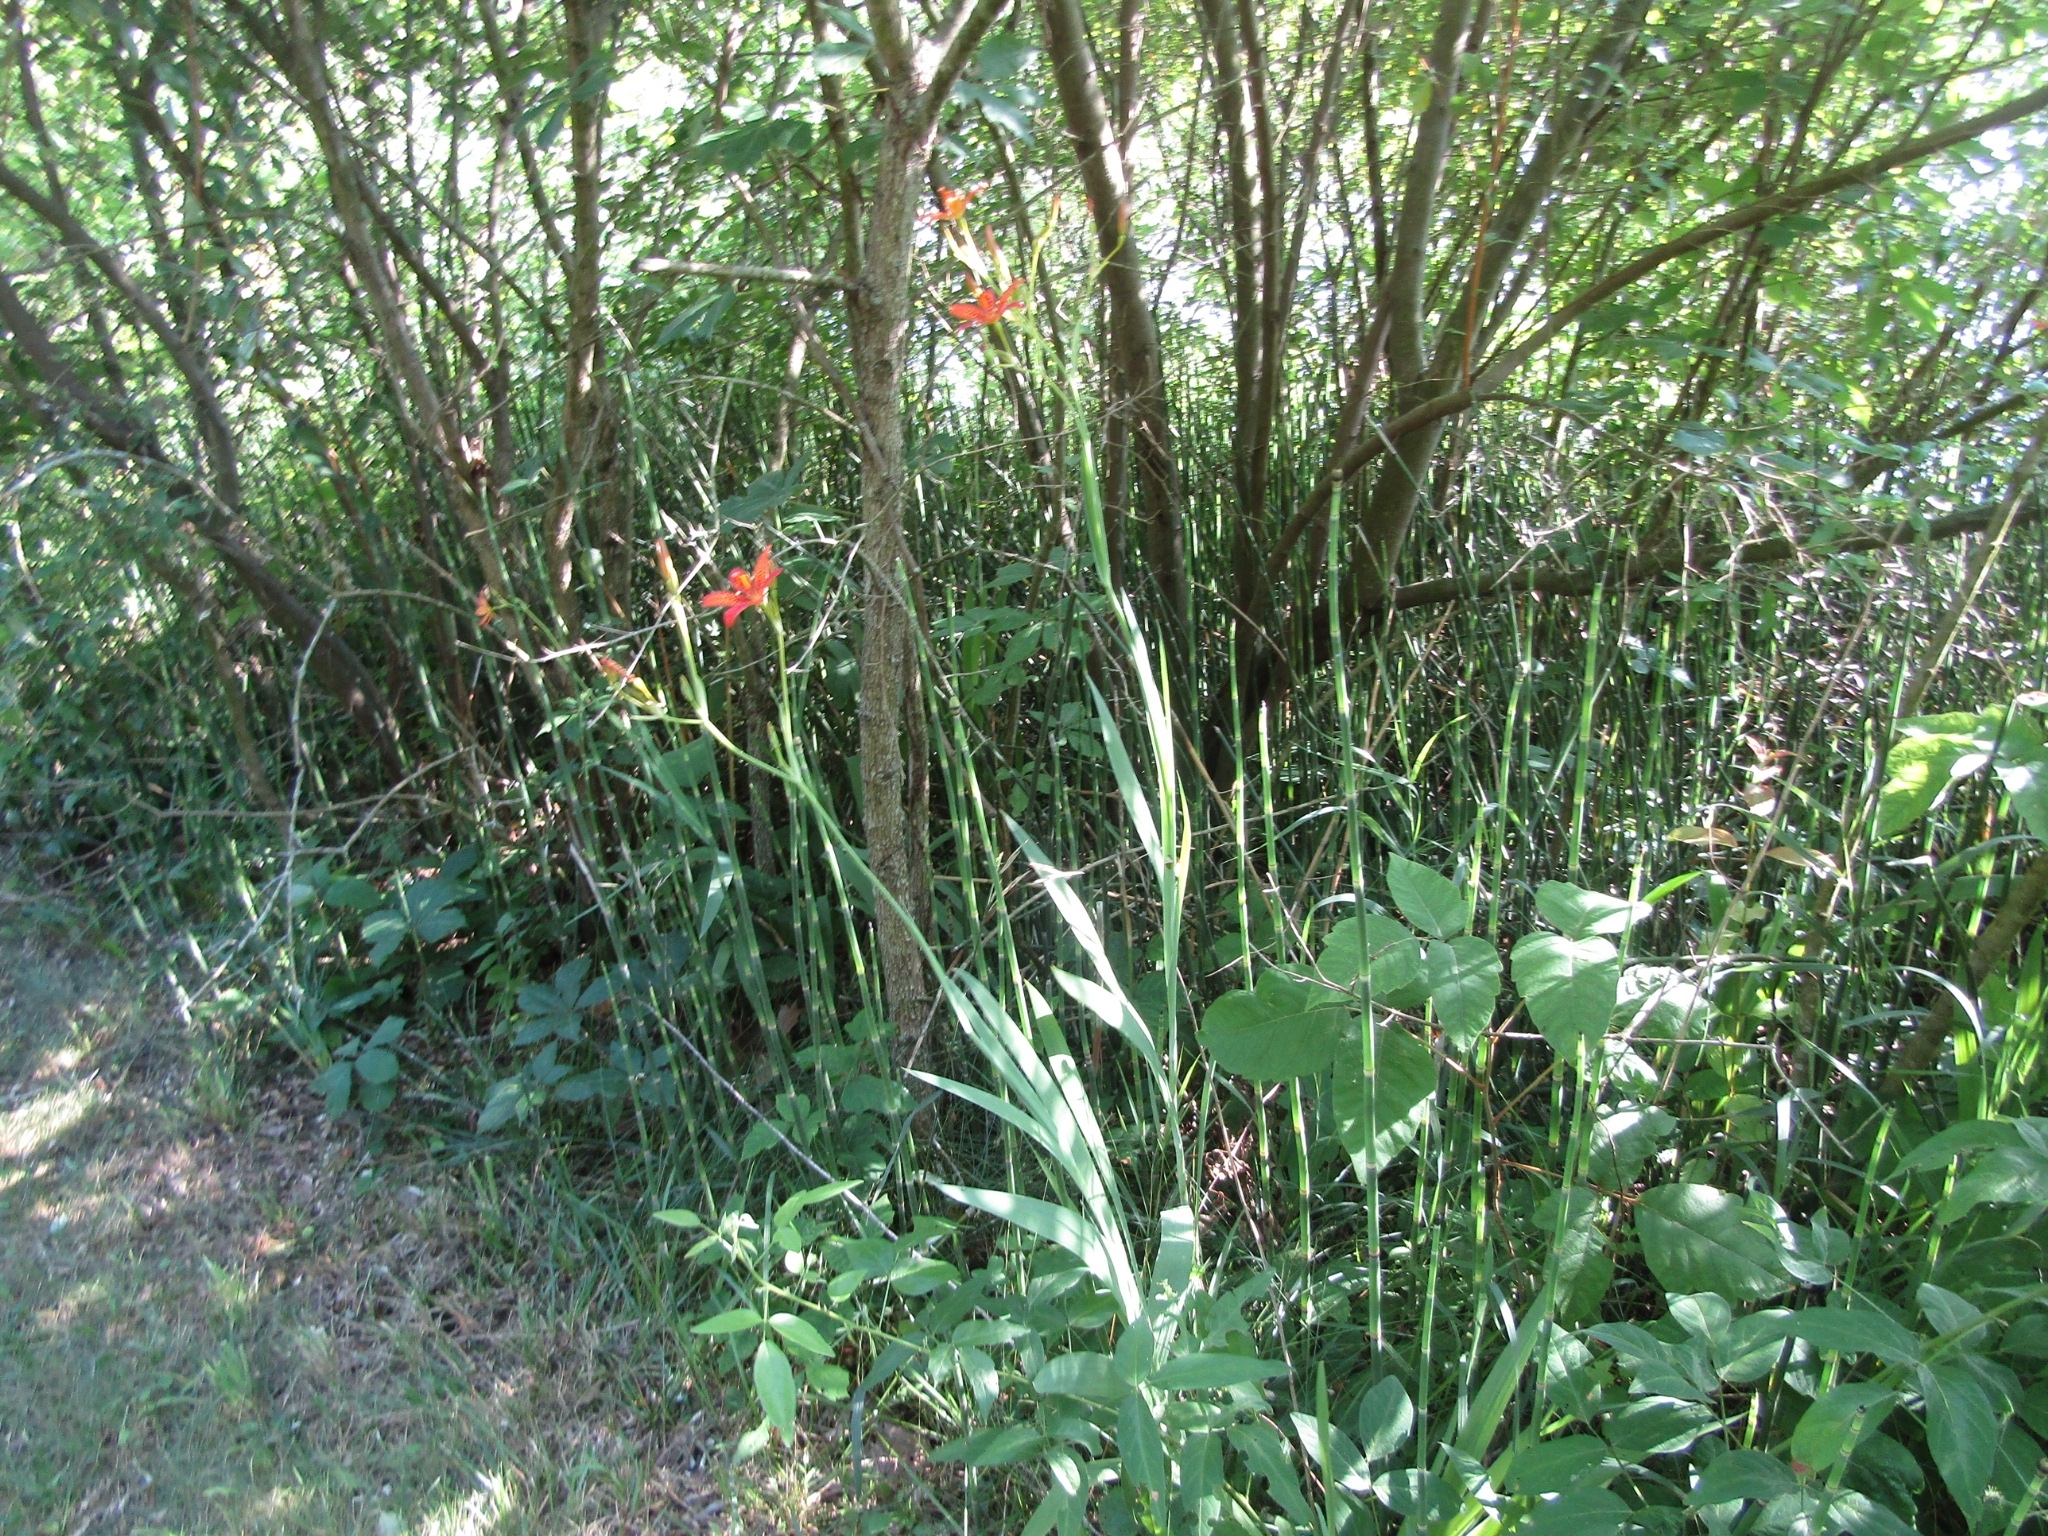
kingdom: Plantae
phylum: Tracheophyta
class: Liliopsida
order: Asparagales
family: Iridaceae
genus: Iris
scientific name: Iris domestica
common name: Belamcanda
